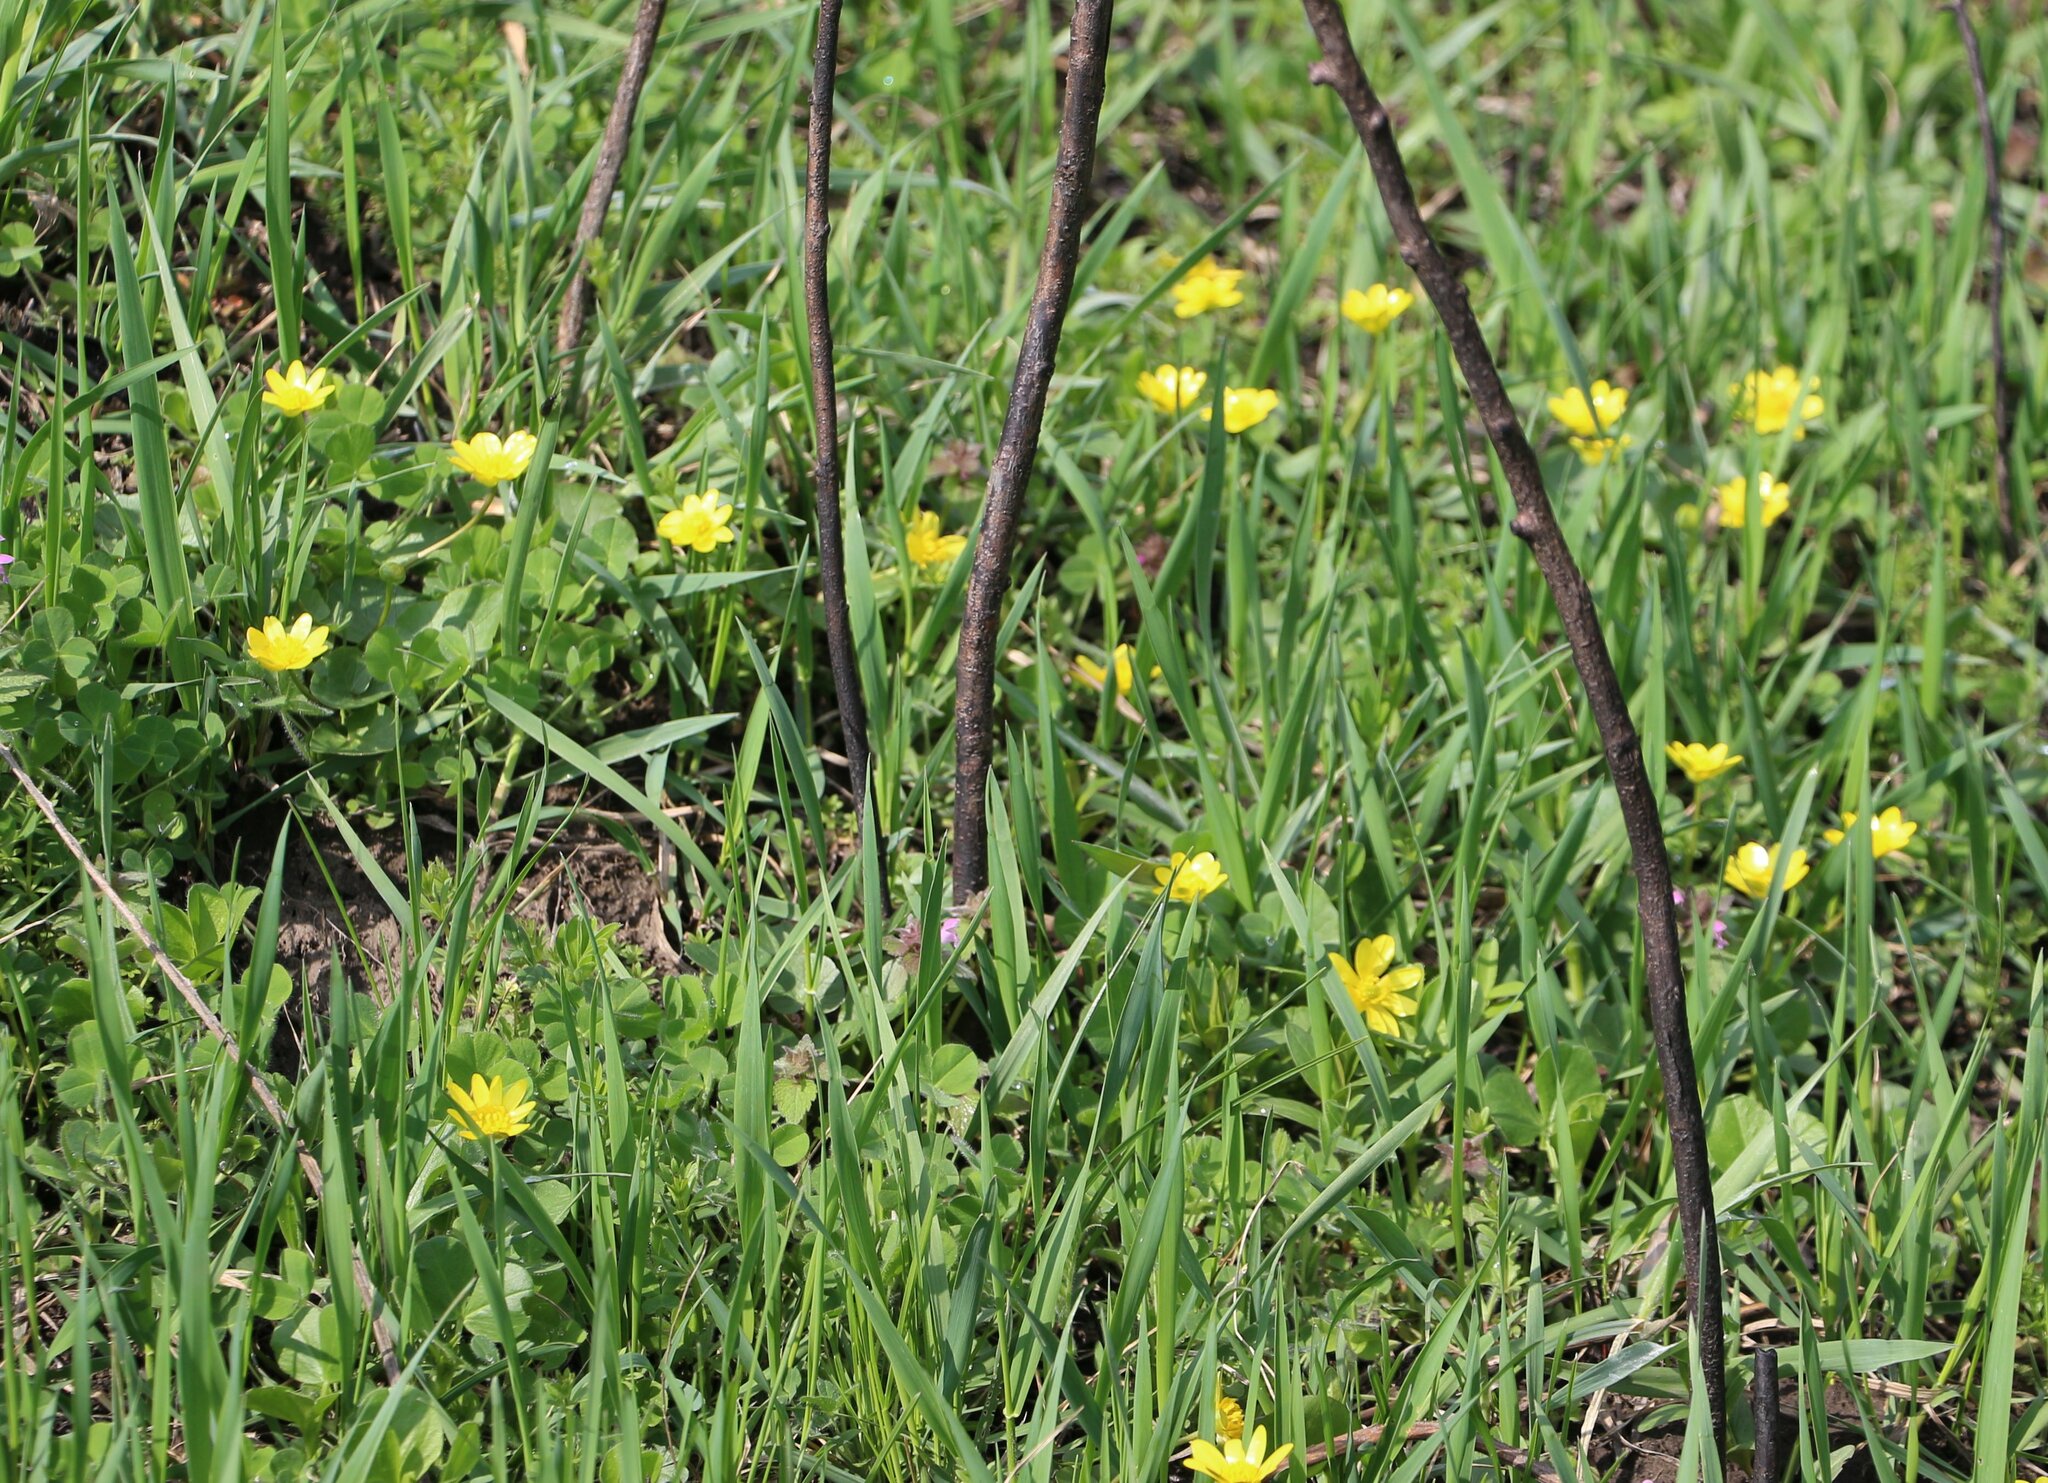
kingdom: Plantae
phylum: Tracheophyta
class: Magnoliopsida
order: Ranunculales
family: Ranunculaceae
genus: Ficaria
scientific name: Ficaria verna
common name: Lesser celandine
